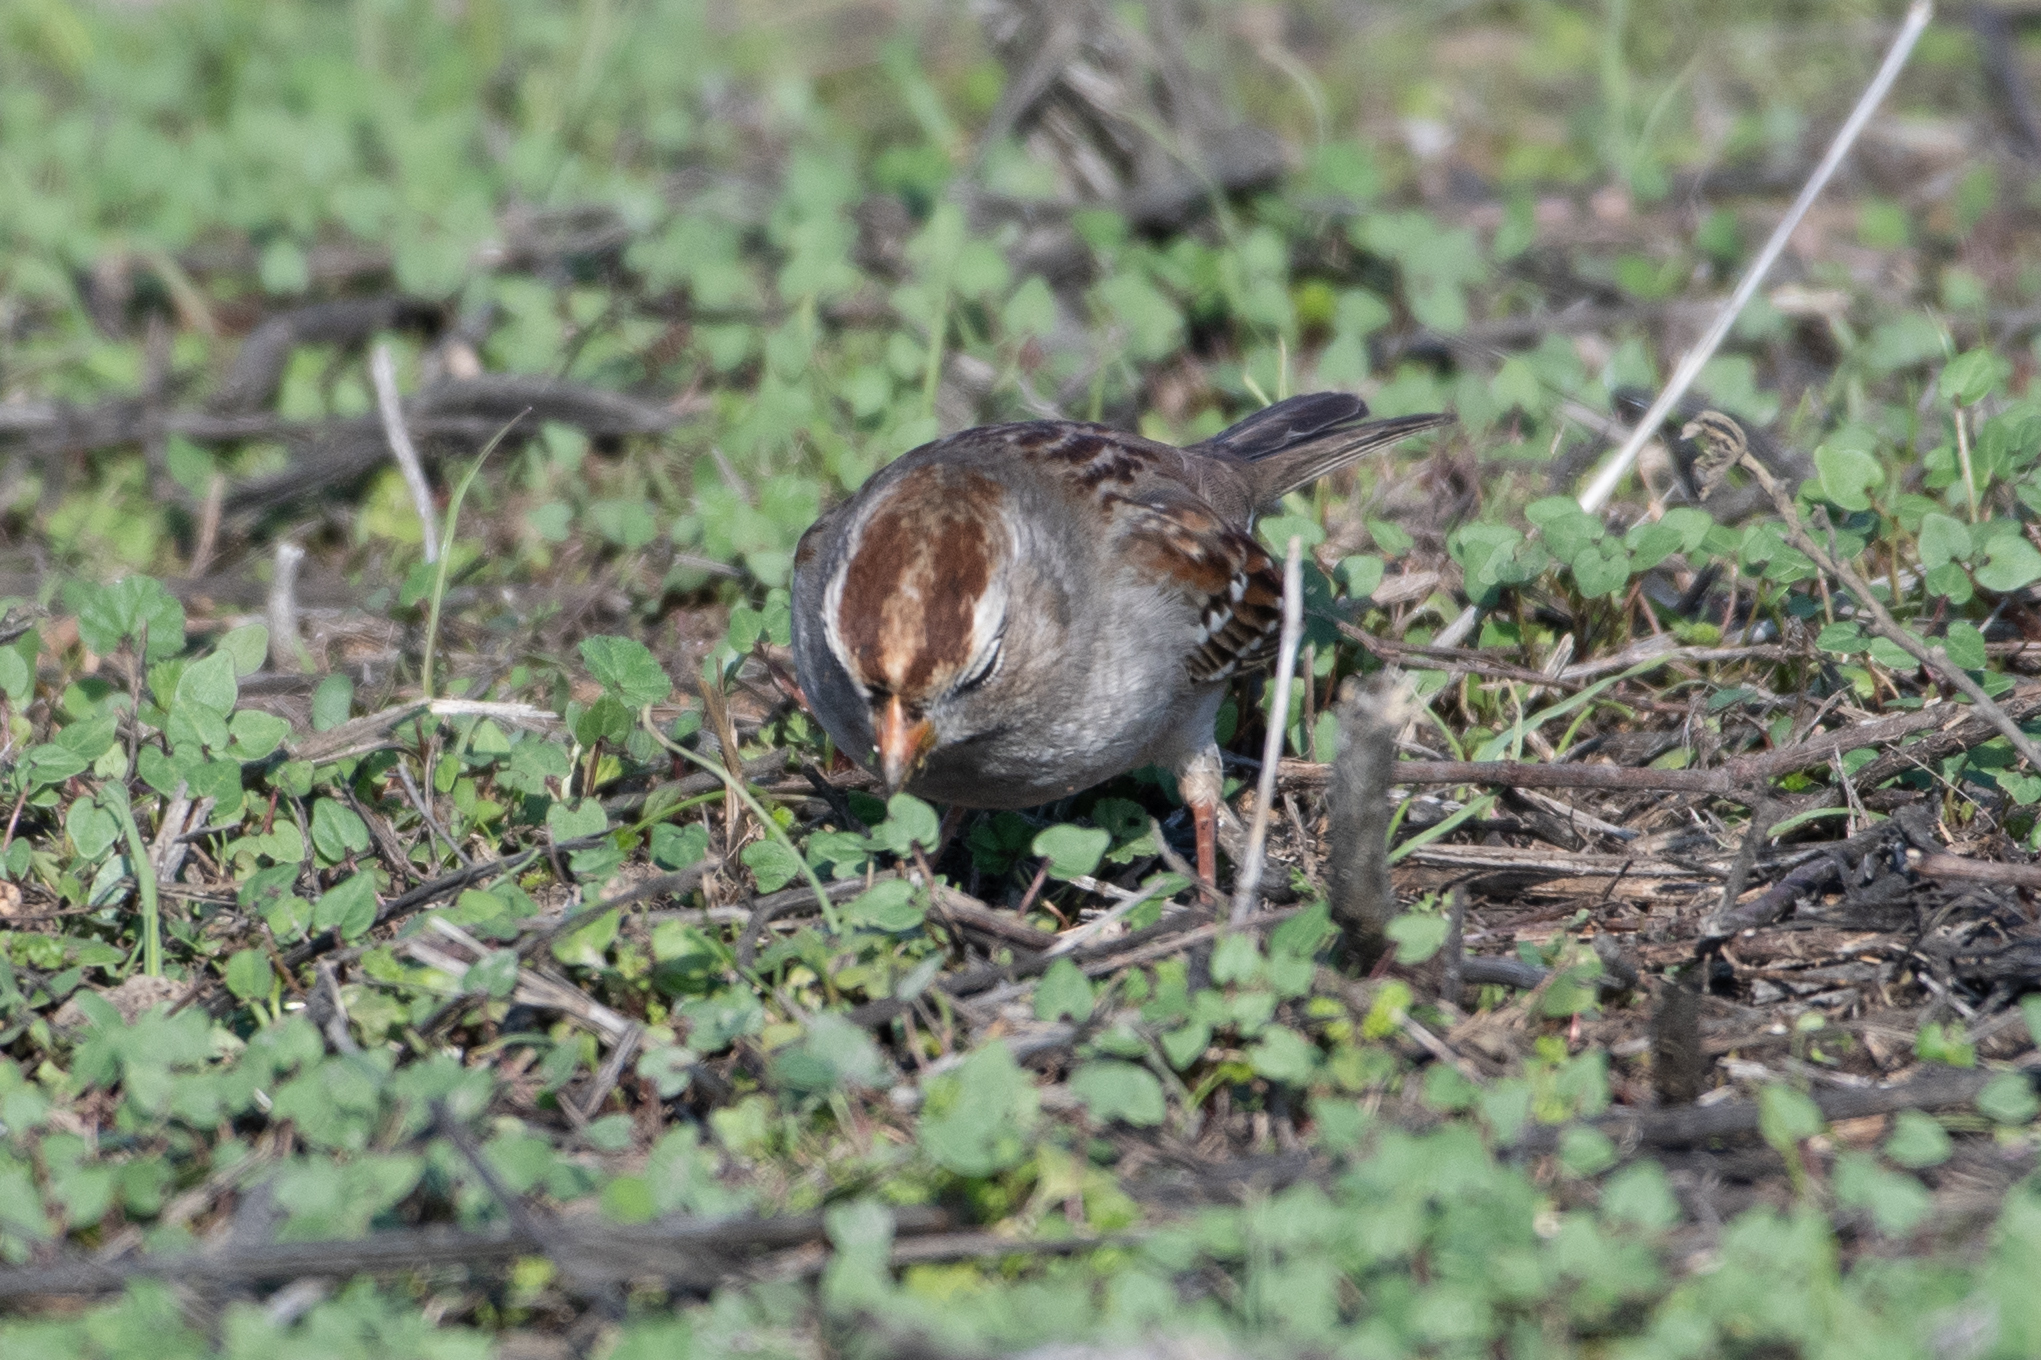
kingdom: Animalia
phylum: Chordata
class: Aves
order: Passeriformes
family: Passerellidae
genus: Zonotrichia
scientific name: Zonotrichia leucophrys
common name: White-crowned sparrow
